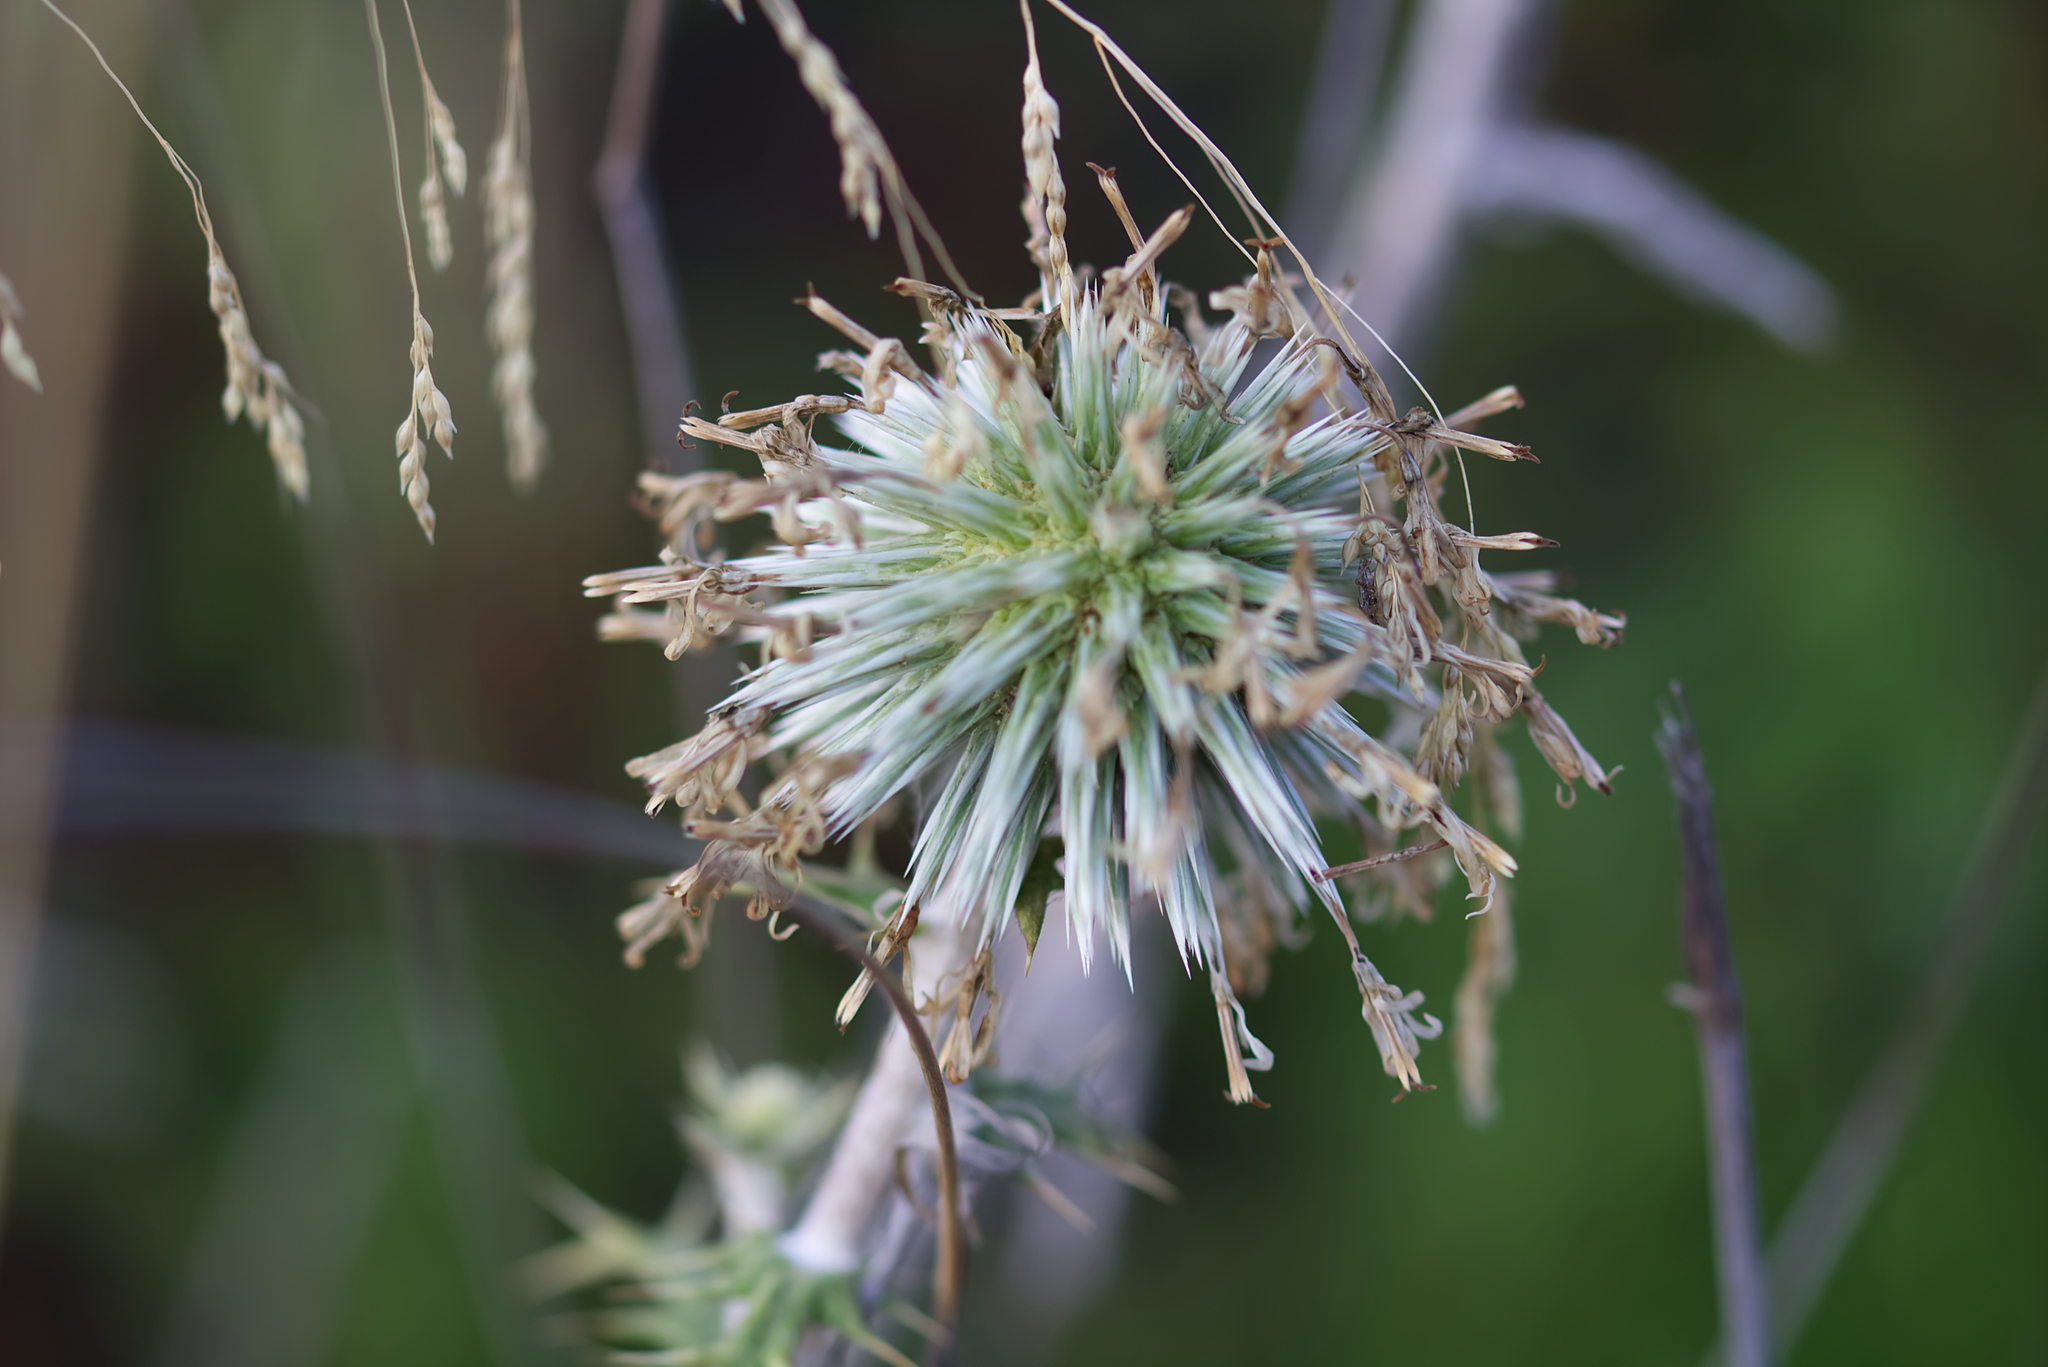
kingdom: Plantae
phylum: Tracheophyta
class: Magnoliopsida
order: Asterales
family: Asteraceae
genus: Echinops
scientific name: Echinops
